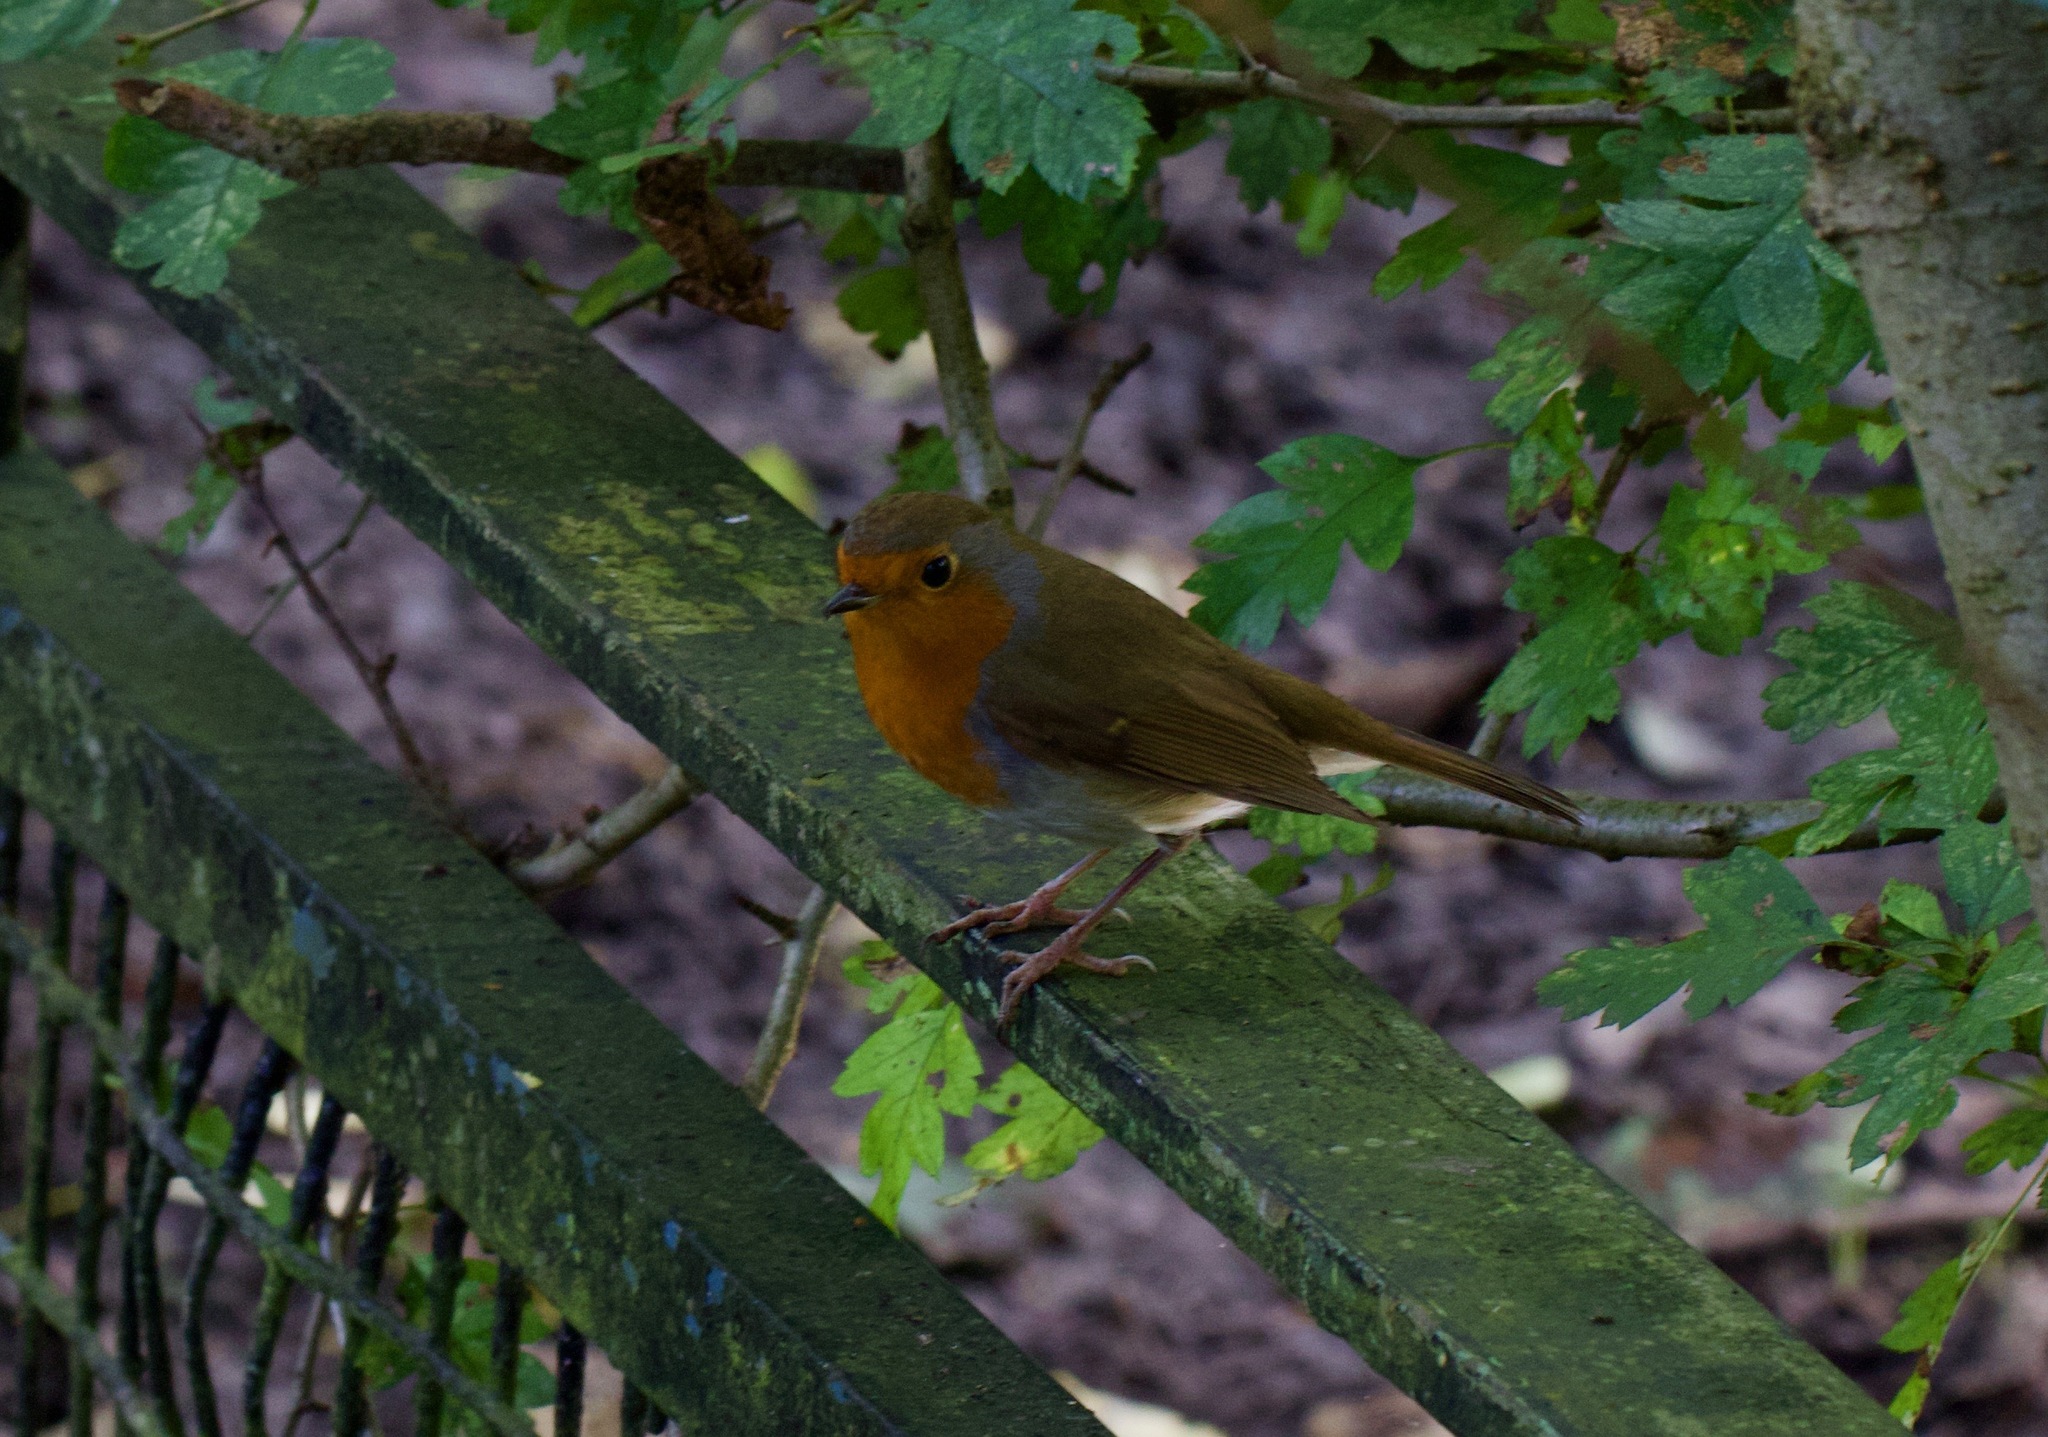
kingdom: Animalia
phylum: Chordata
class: Aves
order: Passeriformes
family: Muscicapidae
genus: Erithacus
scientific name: Erithacus rubecula
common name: European robin
